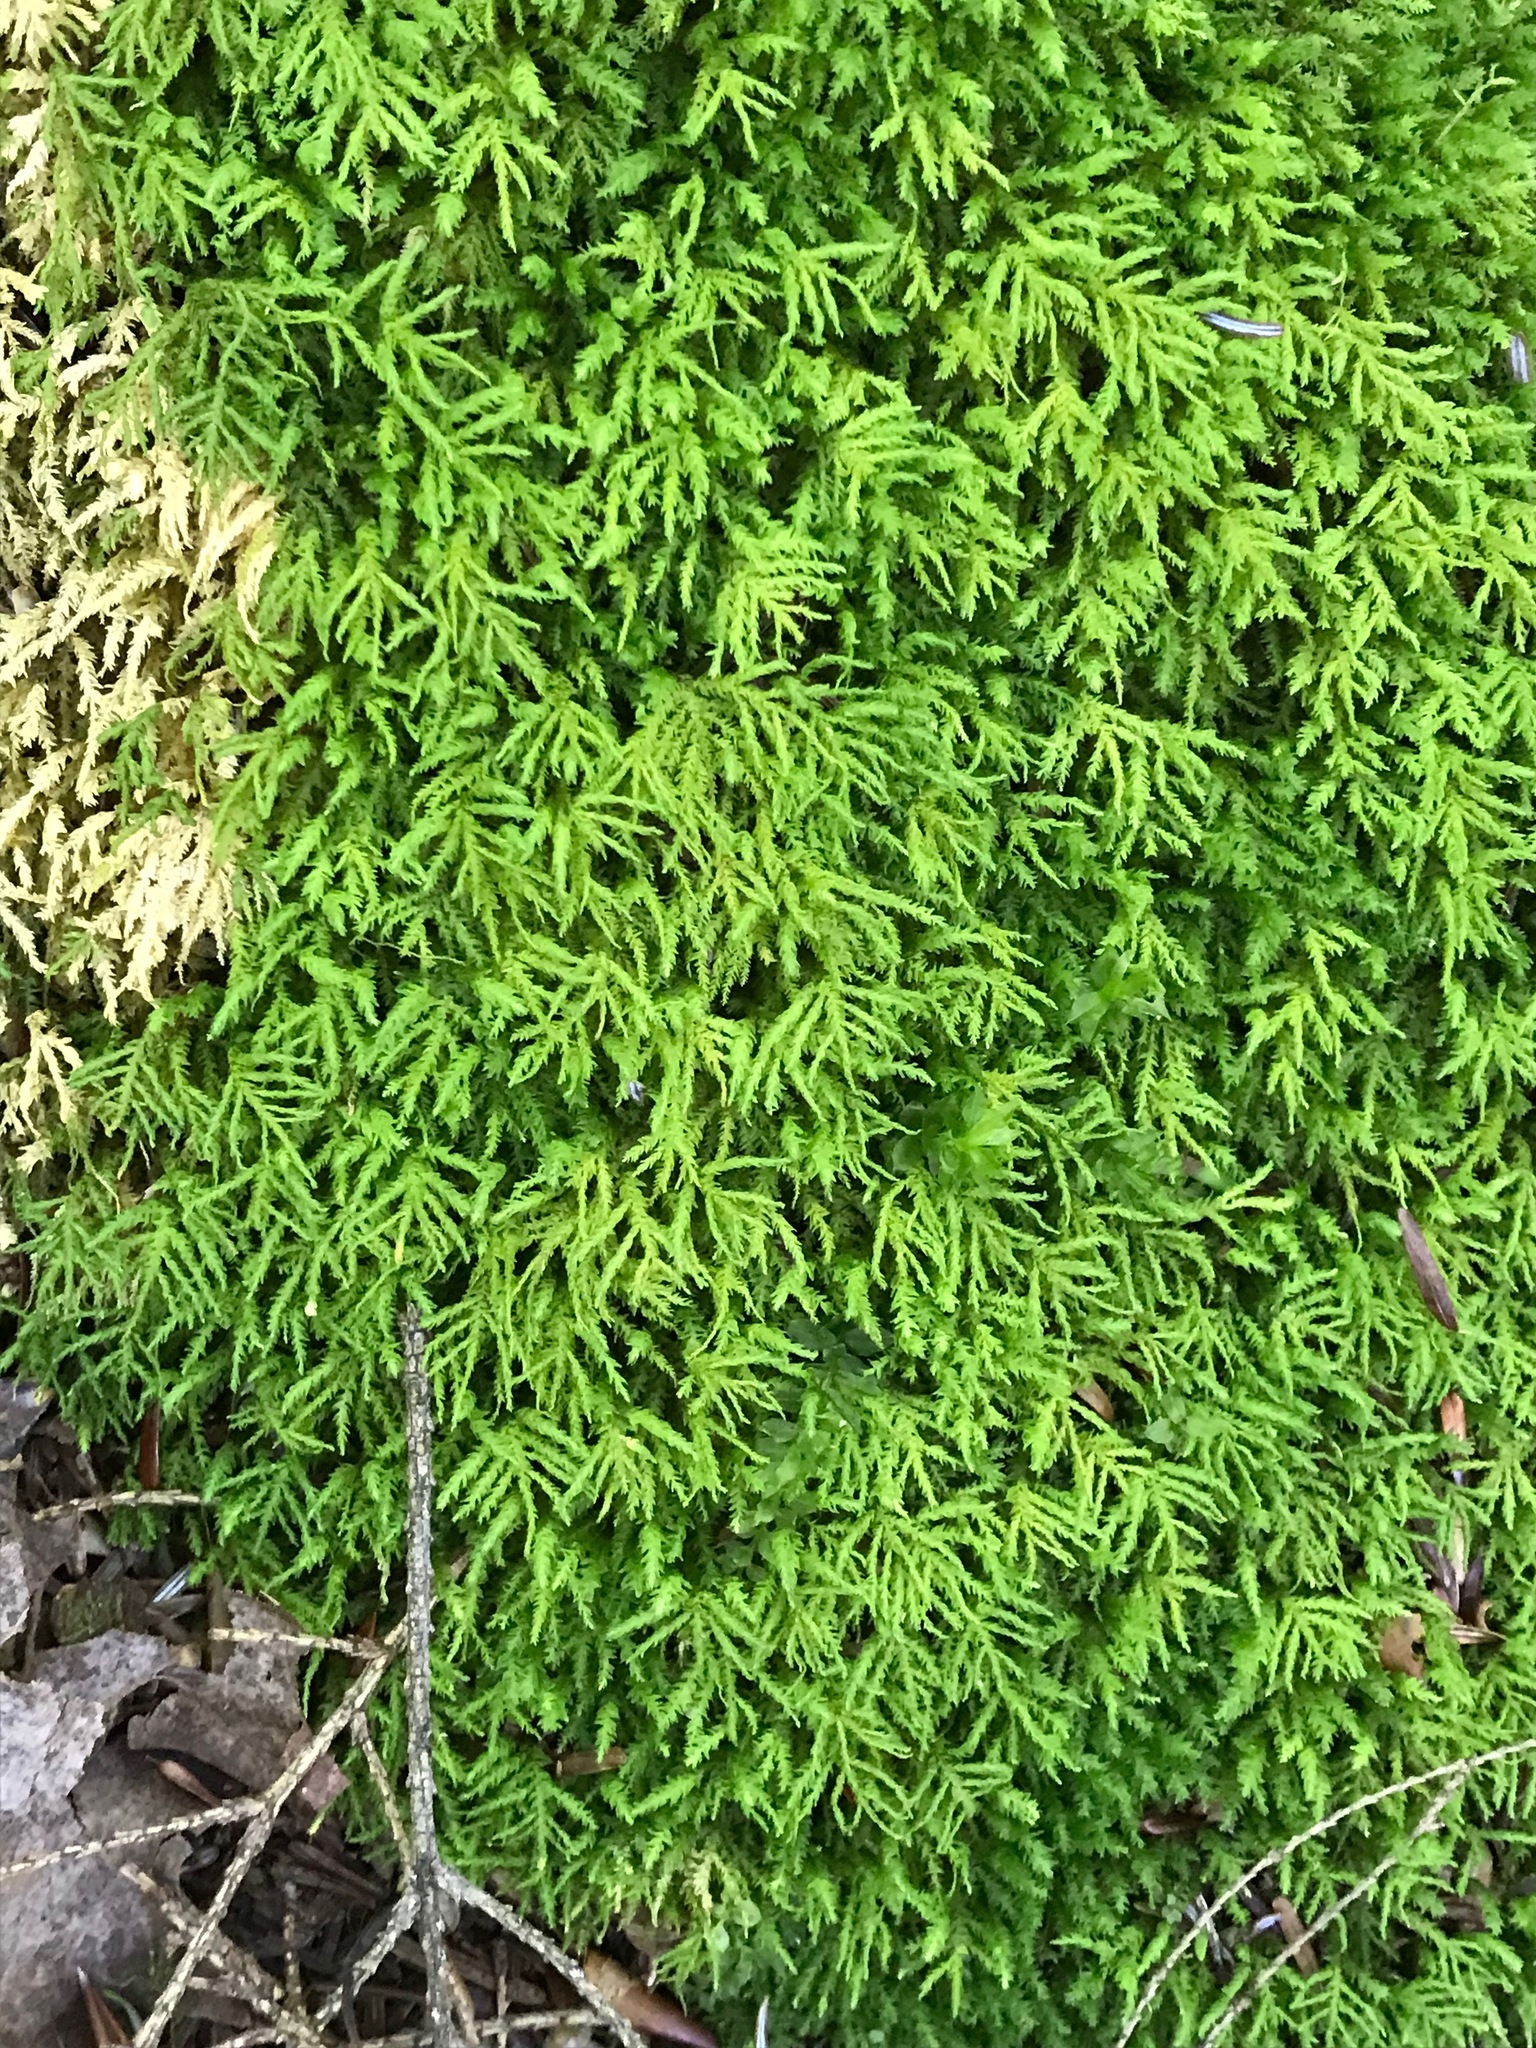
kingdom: Plantae
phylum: Bryophyta
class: Bryopsida
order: Hypnales
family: Neckeraceae
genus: Pseudanomodon
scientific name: Pseudanomodon attenuatus
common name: Tree-skirt moss
